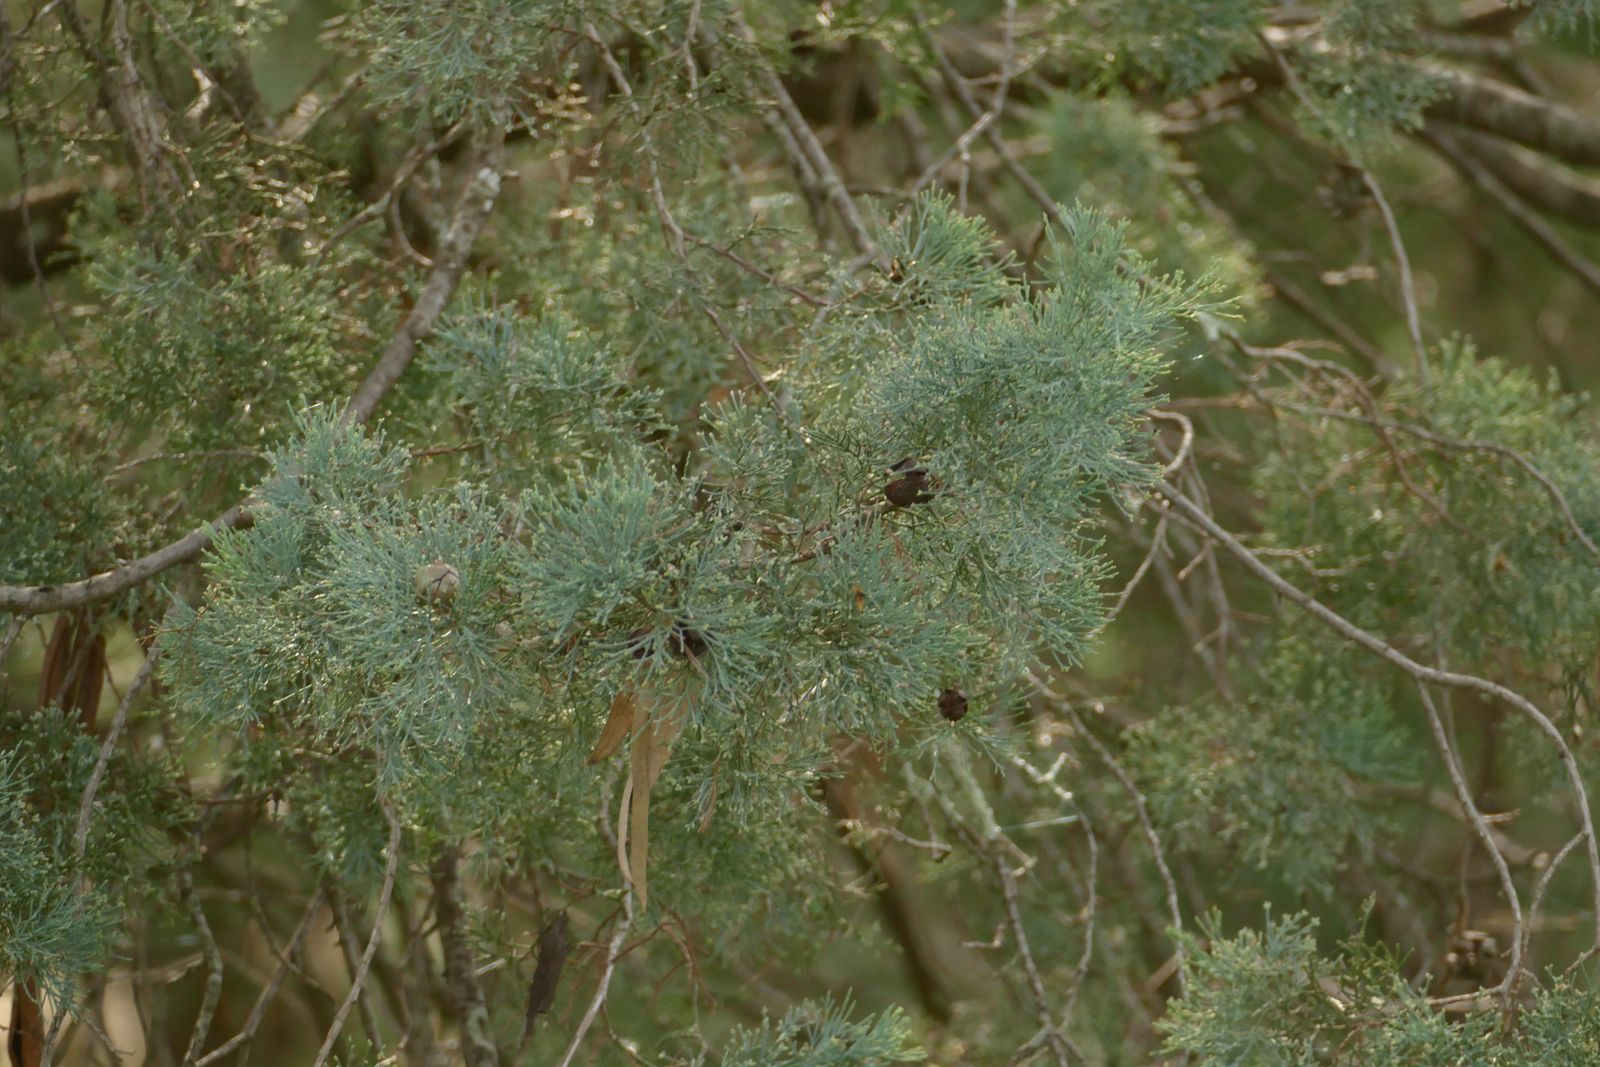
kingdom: Plantae
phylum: Tracheophyta
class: Pinopsida
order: Pinales
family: Cupressaceae
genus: Callitris
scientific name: Callitris columellaris
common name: White cypress-pine
